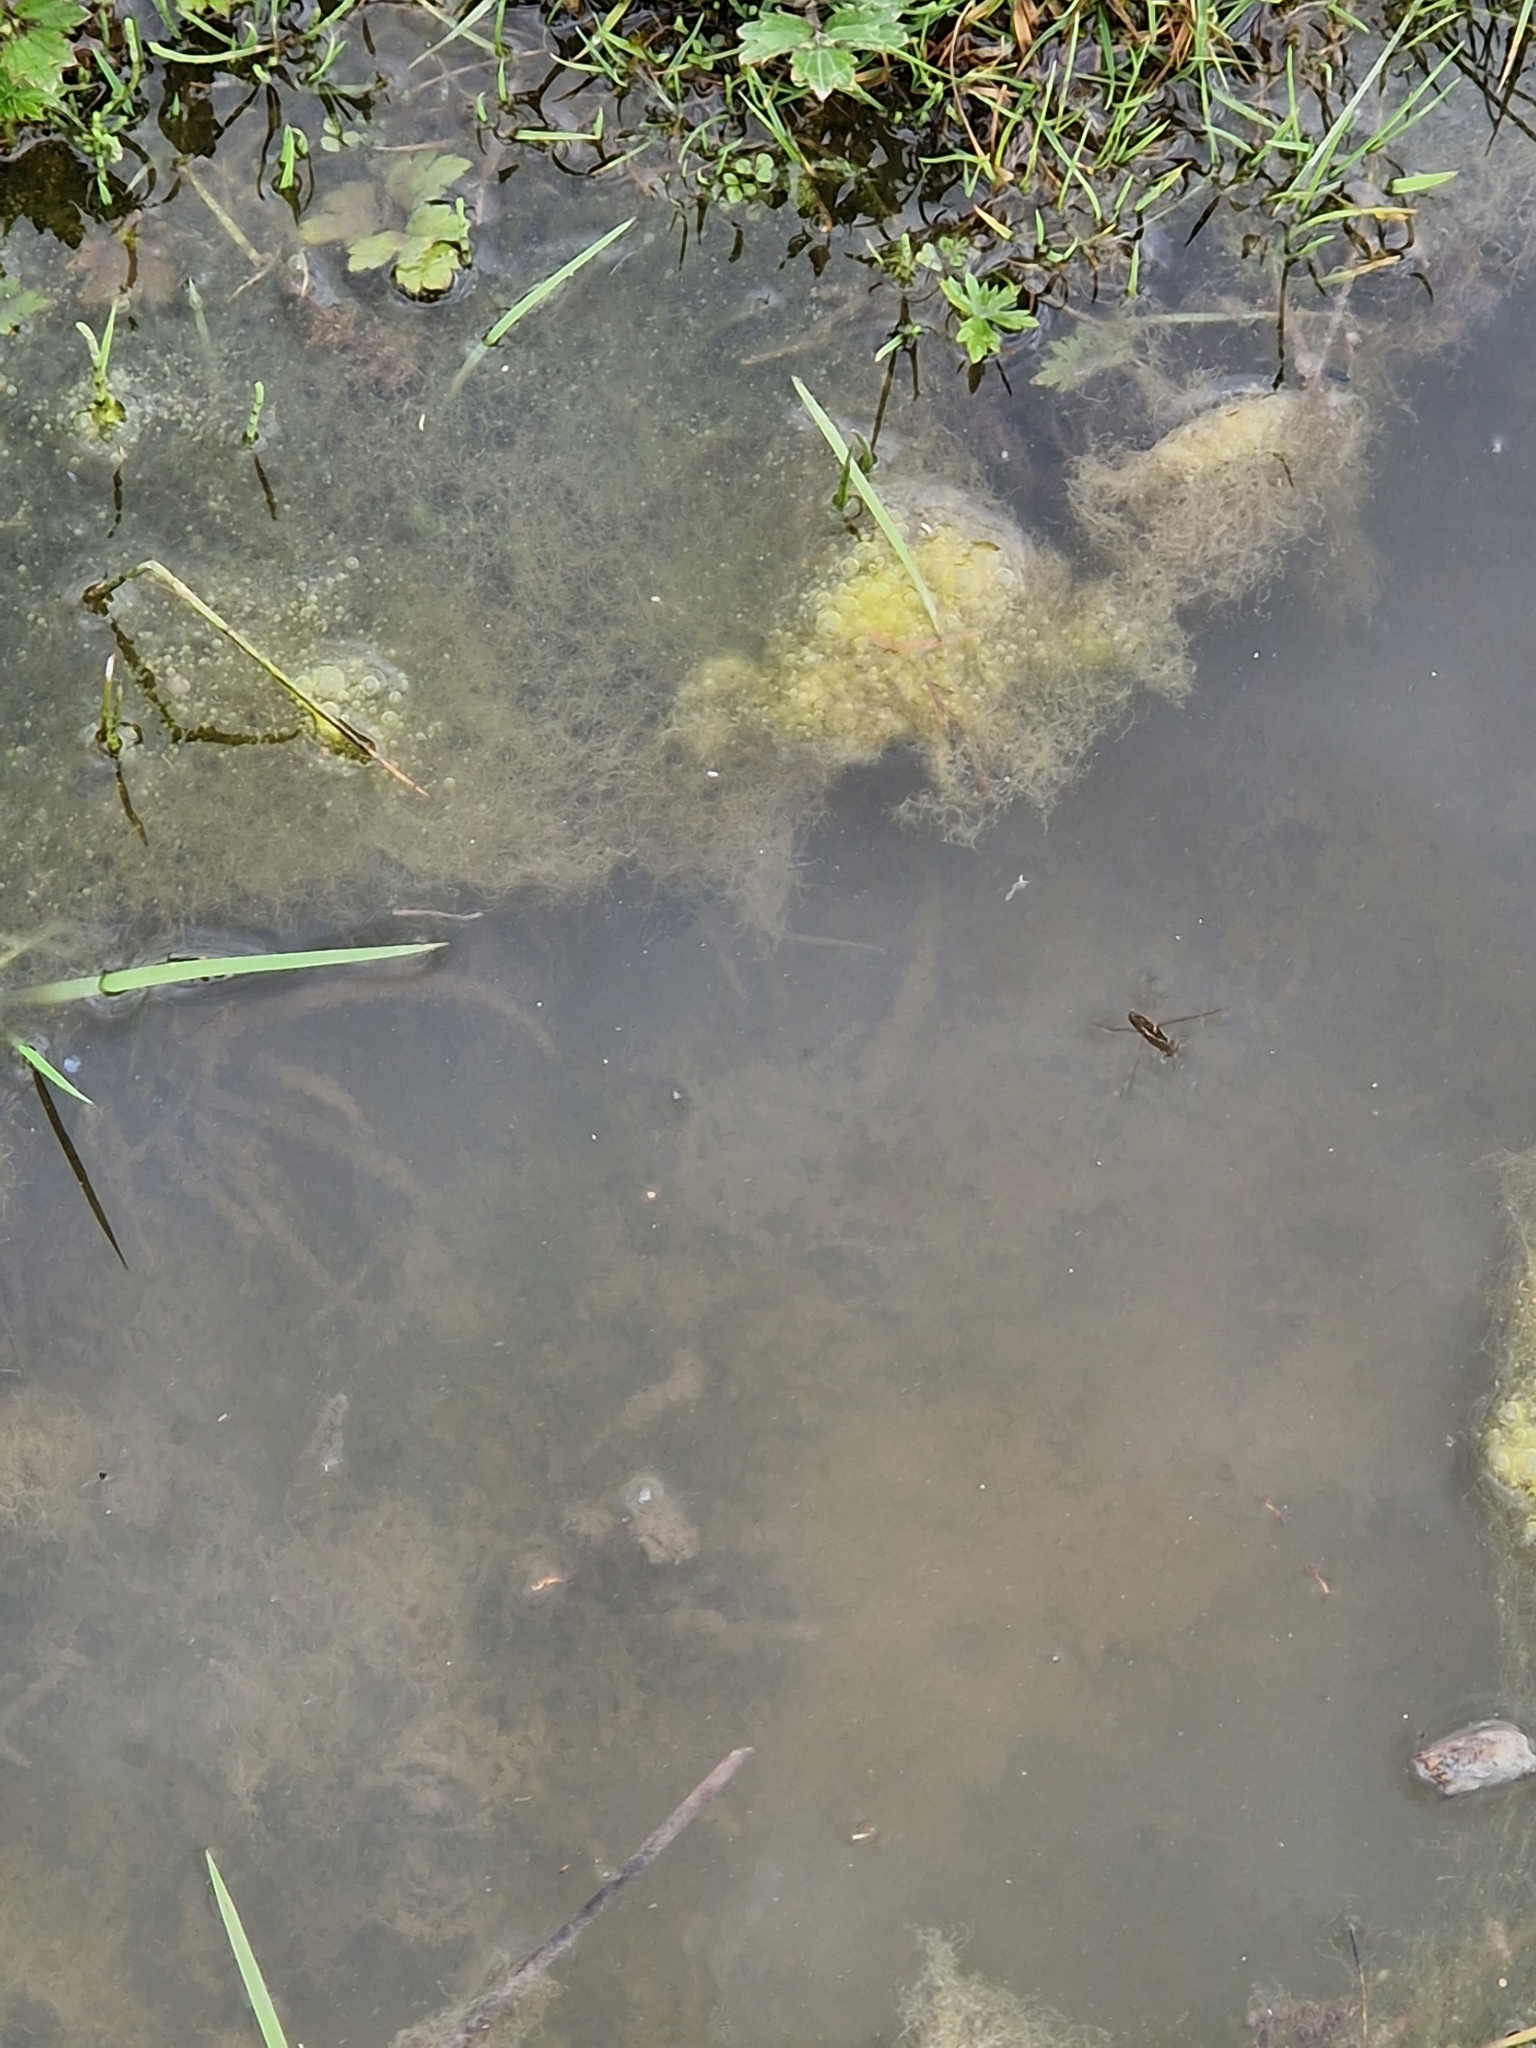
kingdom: Animalia
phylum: Arthropoda
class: Insecta
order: Hemiptera
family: Gerridae
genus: Gerris
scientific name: Gerris
